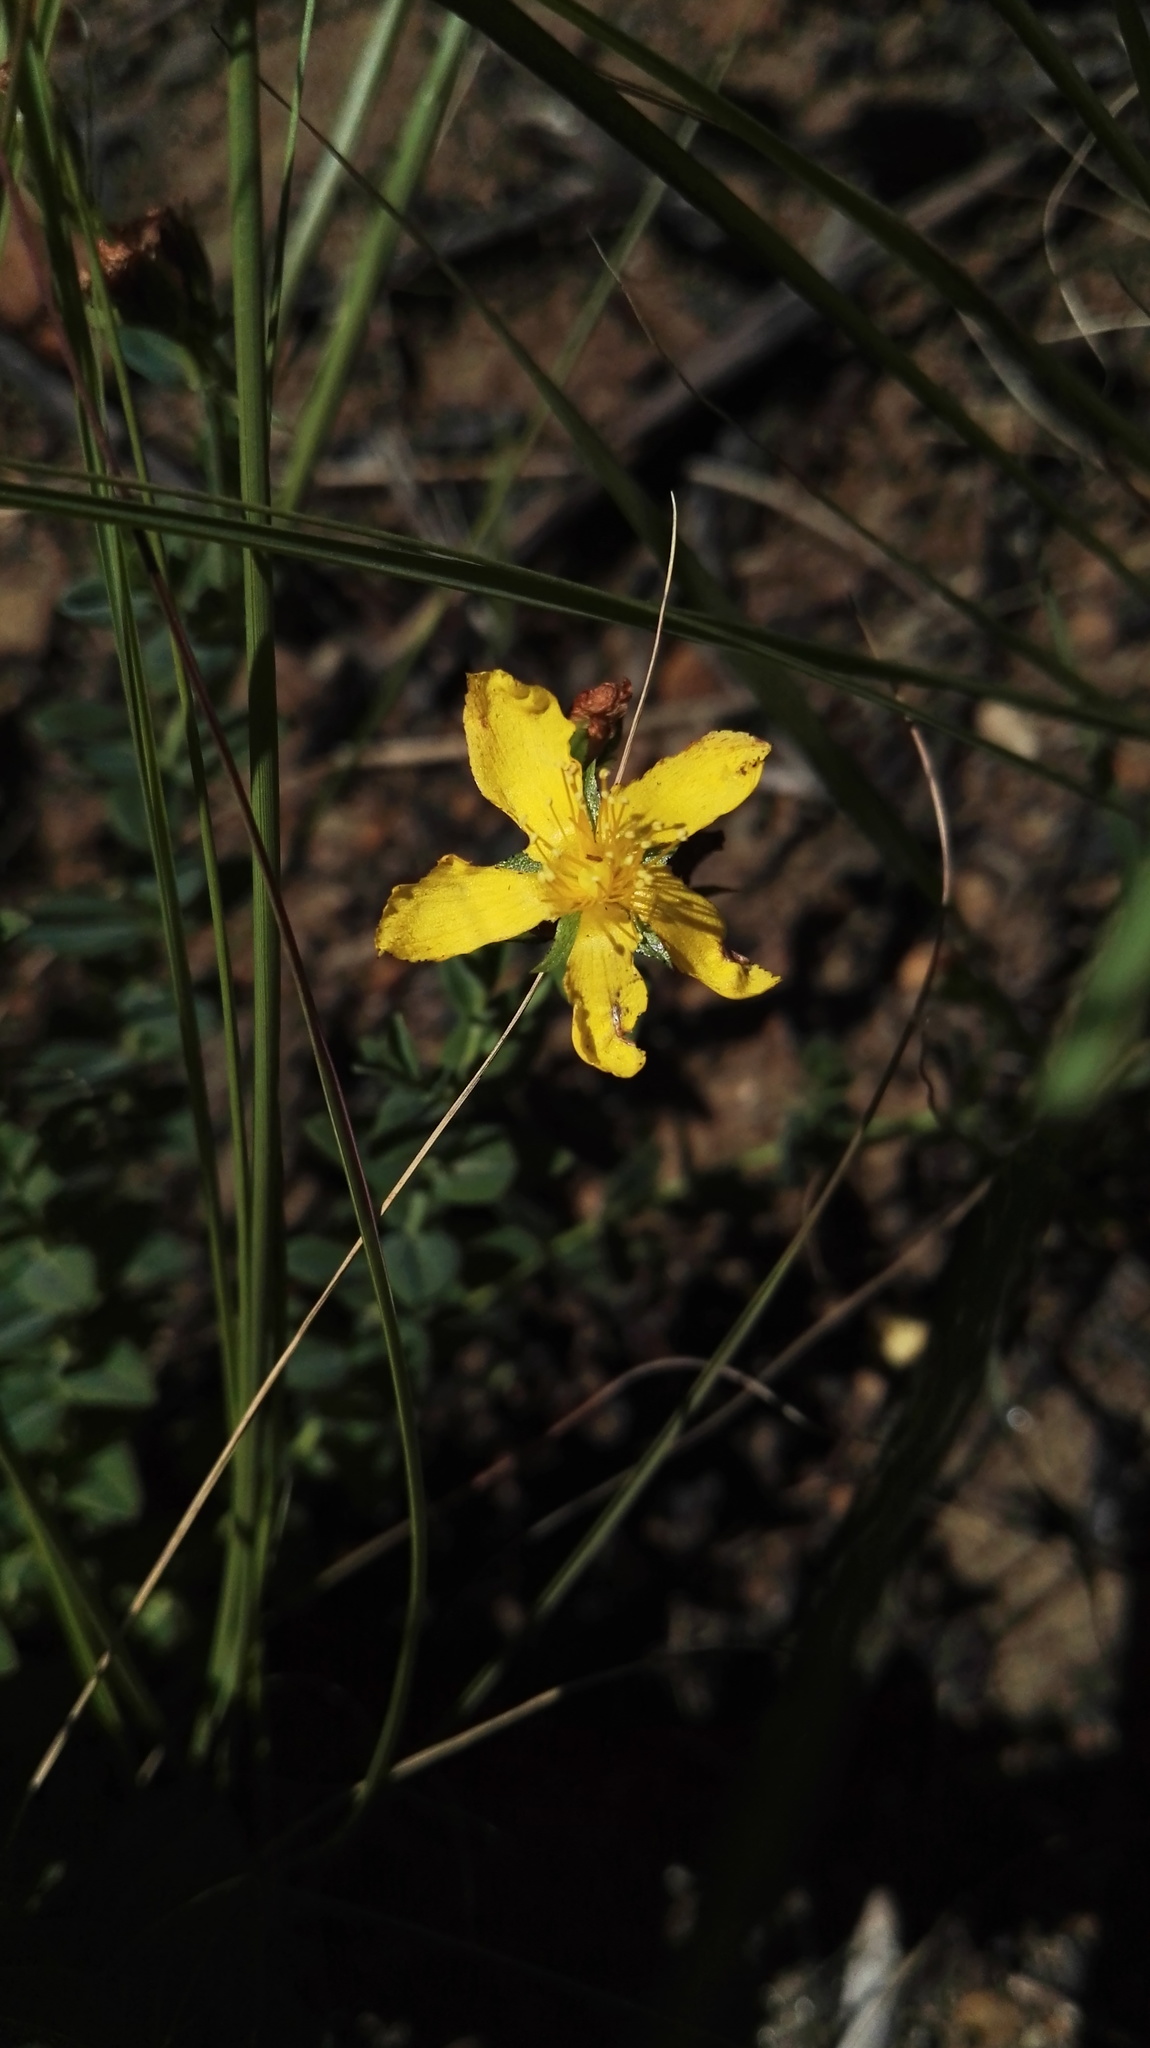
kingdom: Plantae
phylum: Tracheophyta
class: Magnoliopsida
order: Malpighiales
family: Hypericaceae
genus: Hypericum
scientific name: Hypericum aethiopicum
